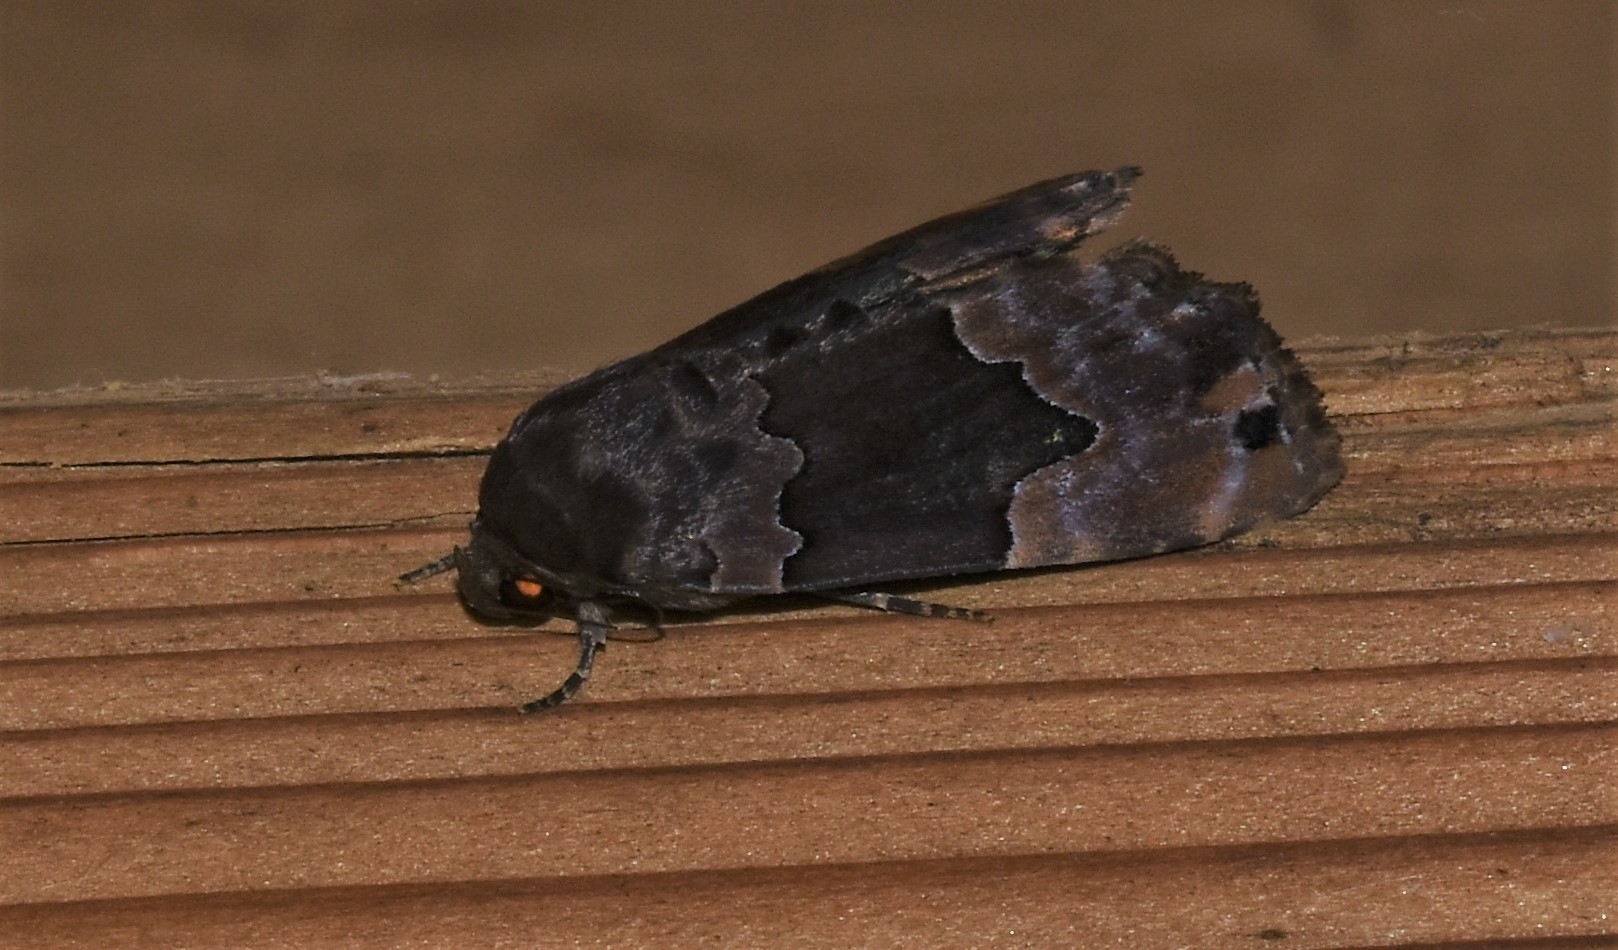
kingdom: Animalia
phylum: Arthropoda
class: Insecta
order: Lepidoptera
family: Erebidae
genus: Dinumma
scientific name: Dinumma deponens
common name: Purplish moth
